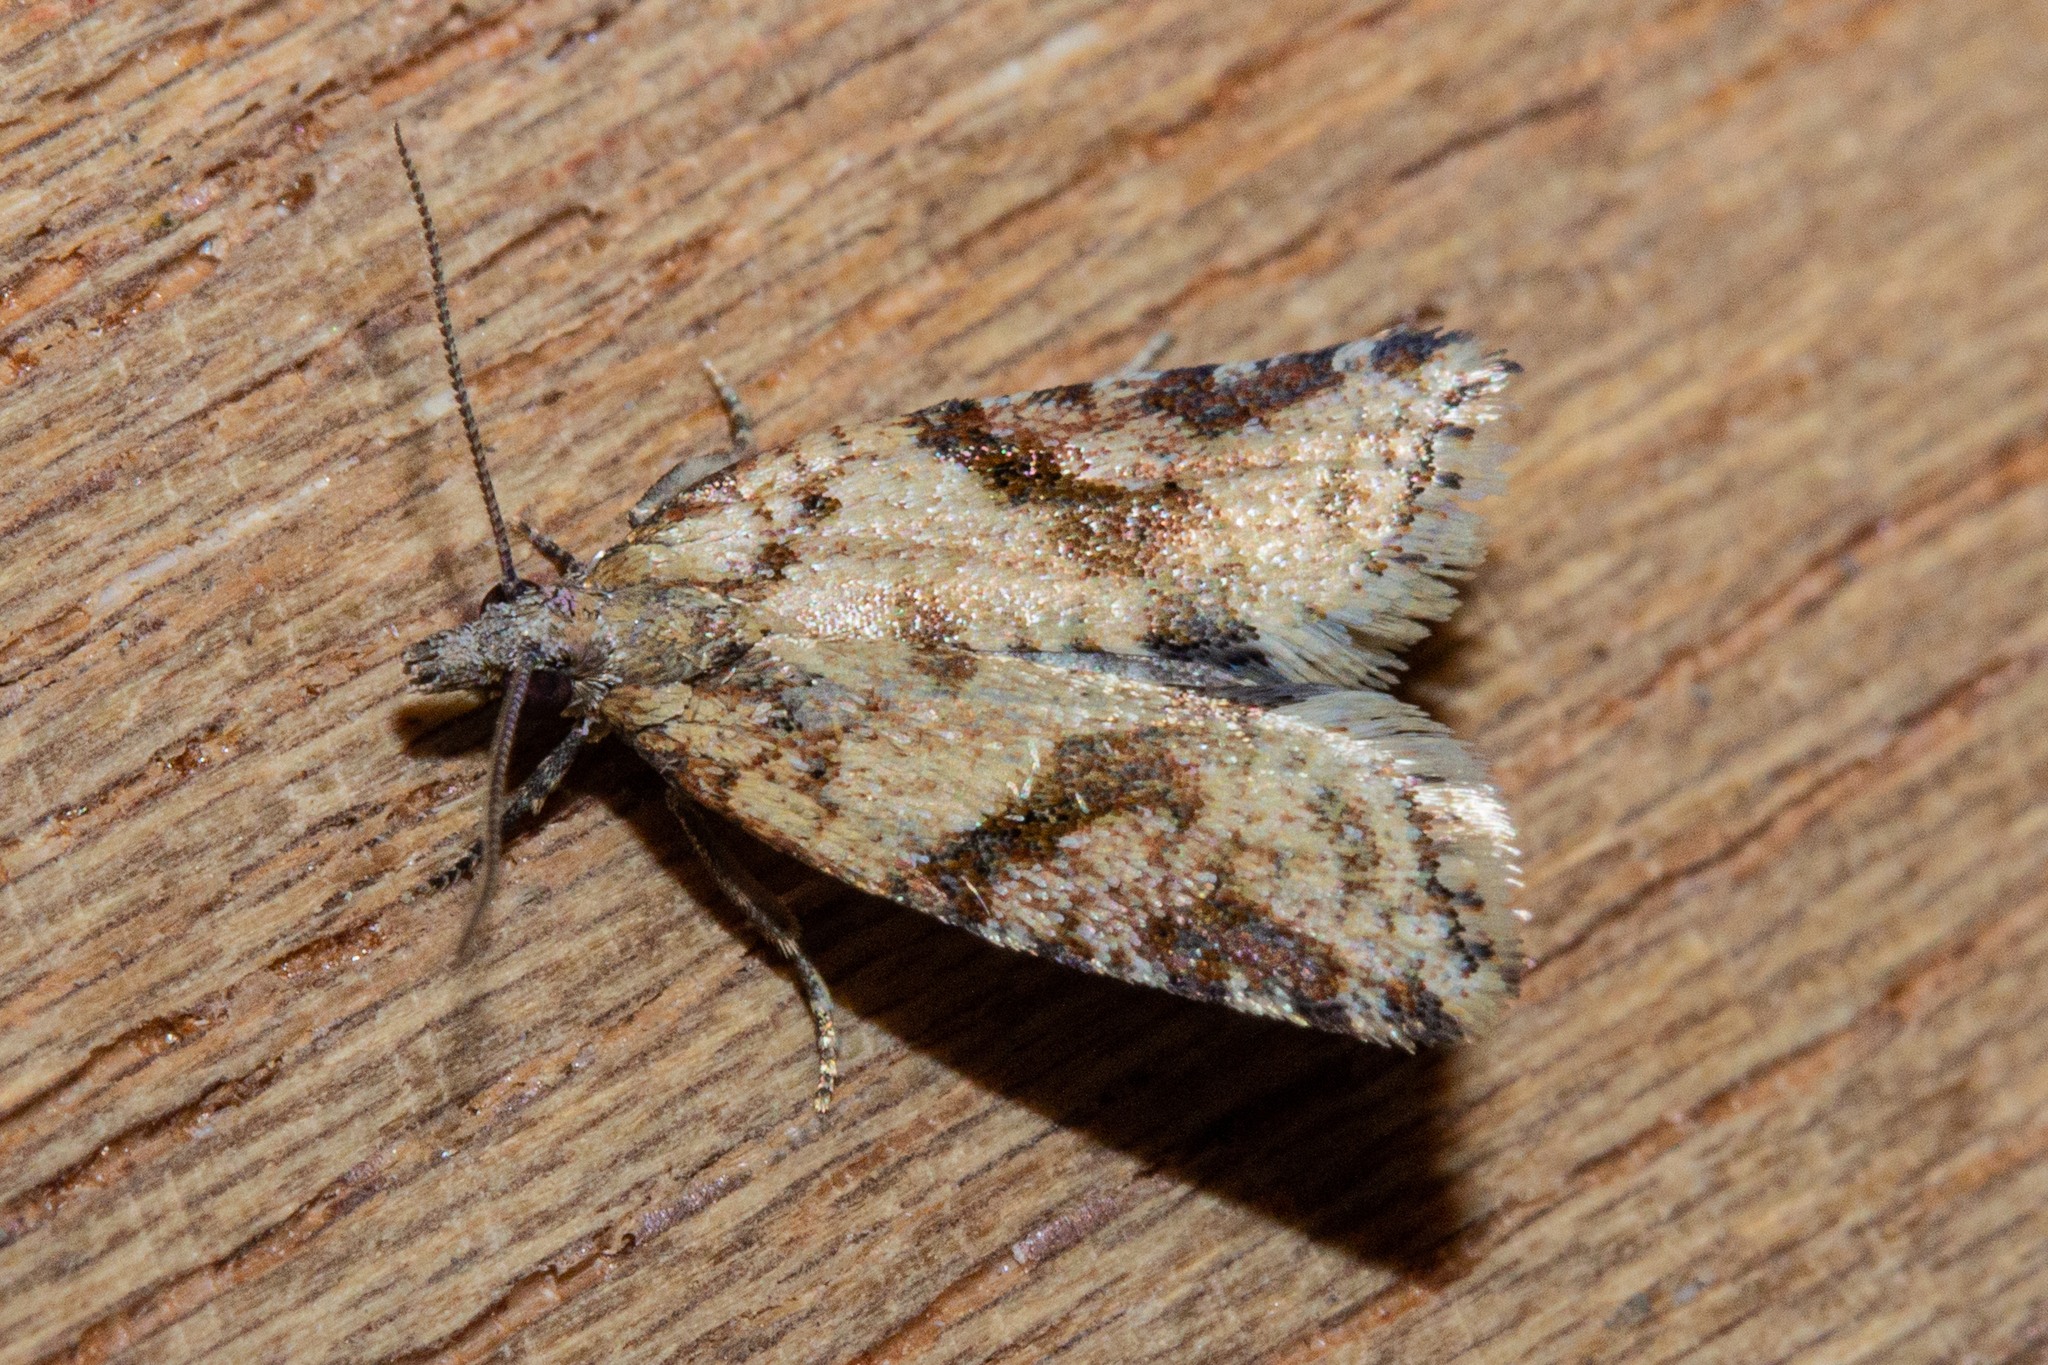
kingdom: Animalia
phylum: Arthropoda
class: Insecta
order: Lepidoptera
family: Tortricidae
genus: Capua
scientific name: Capua semiferana
